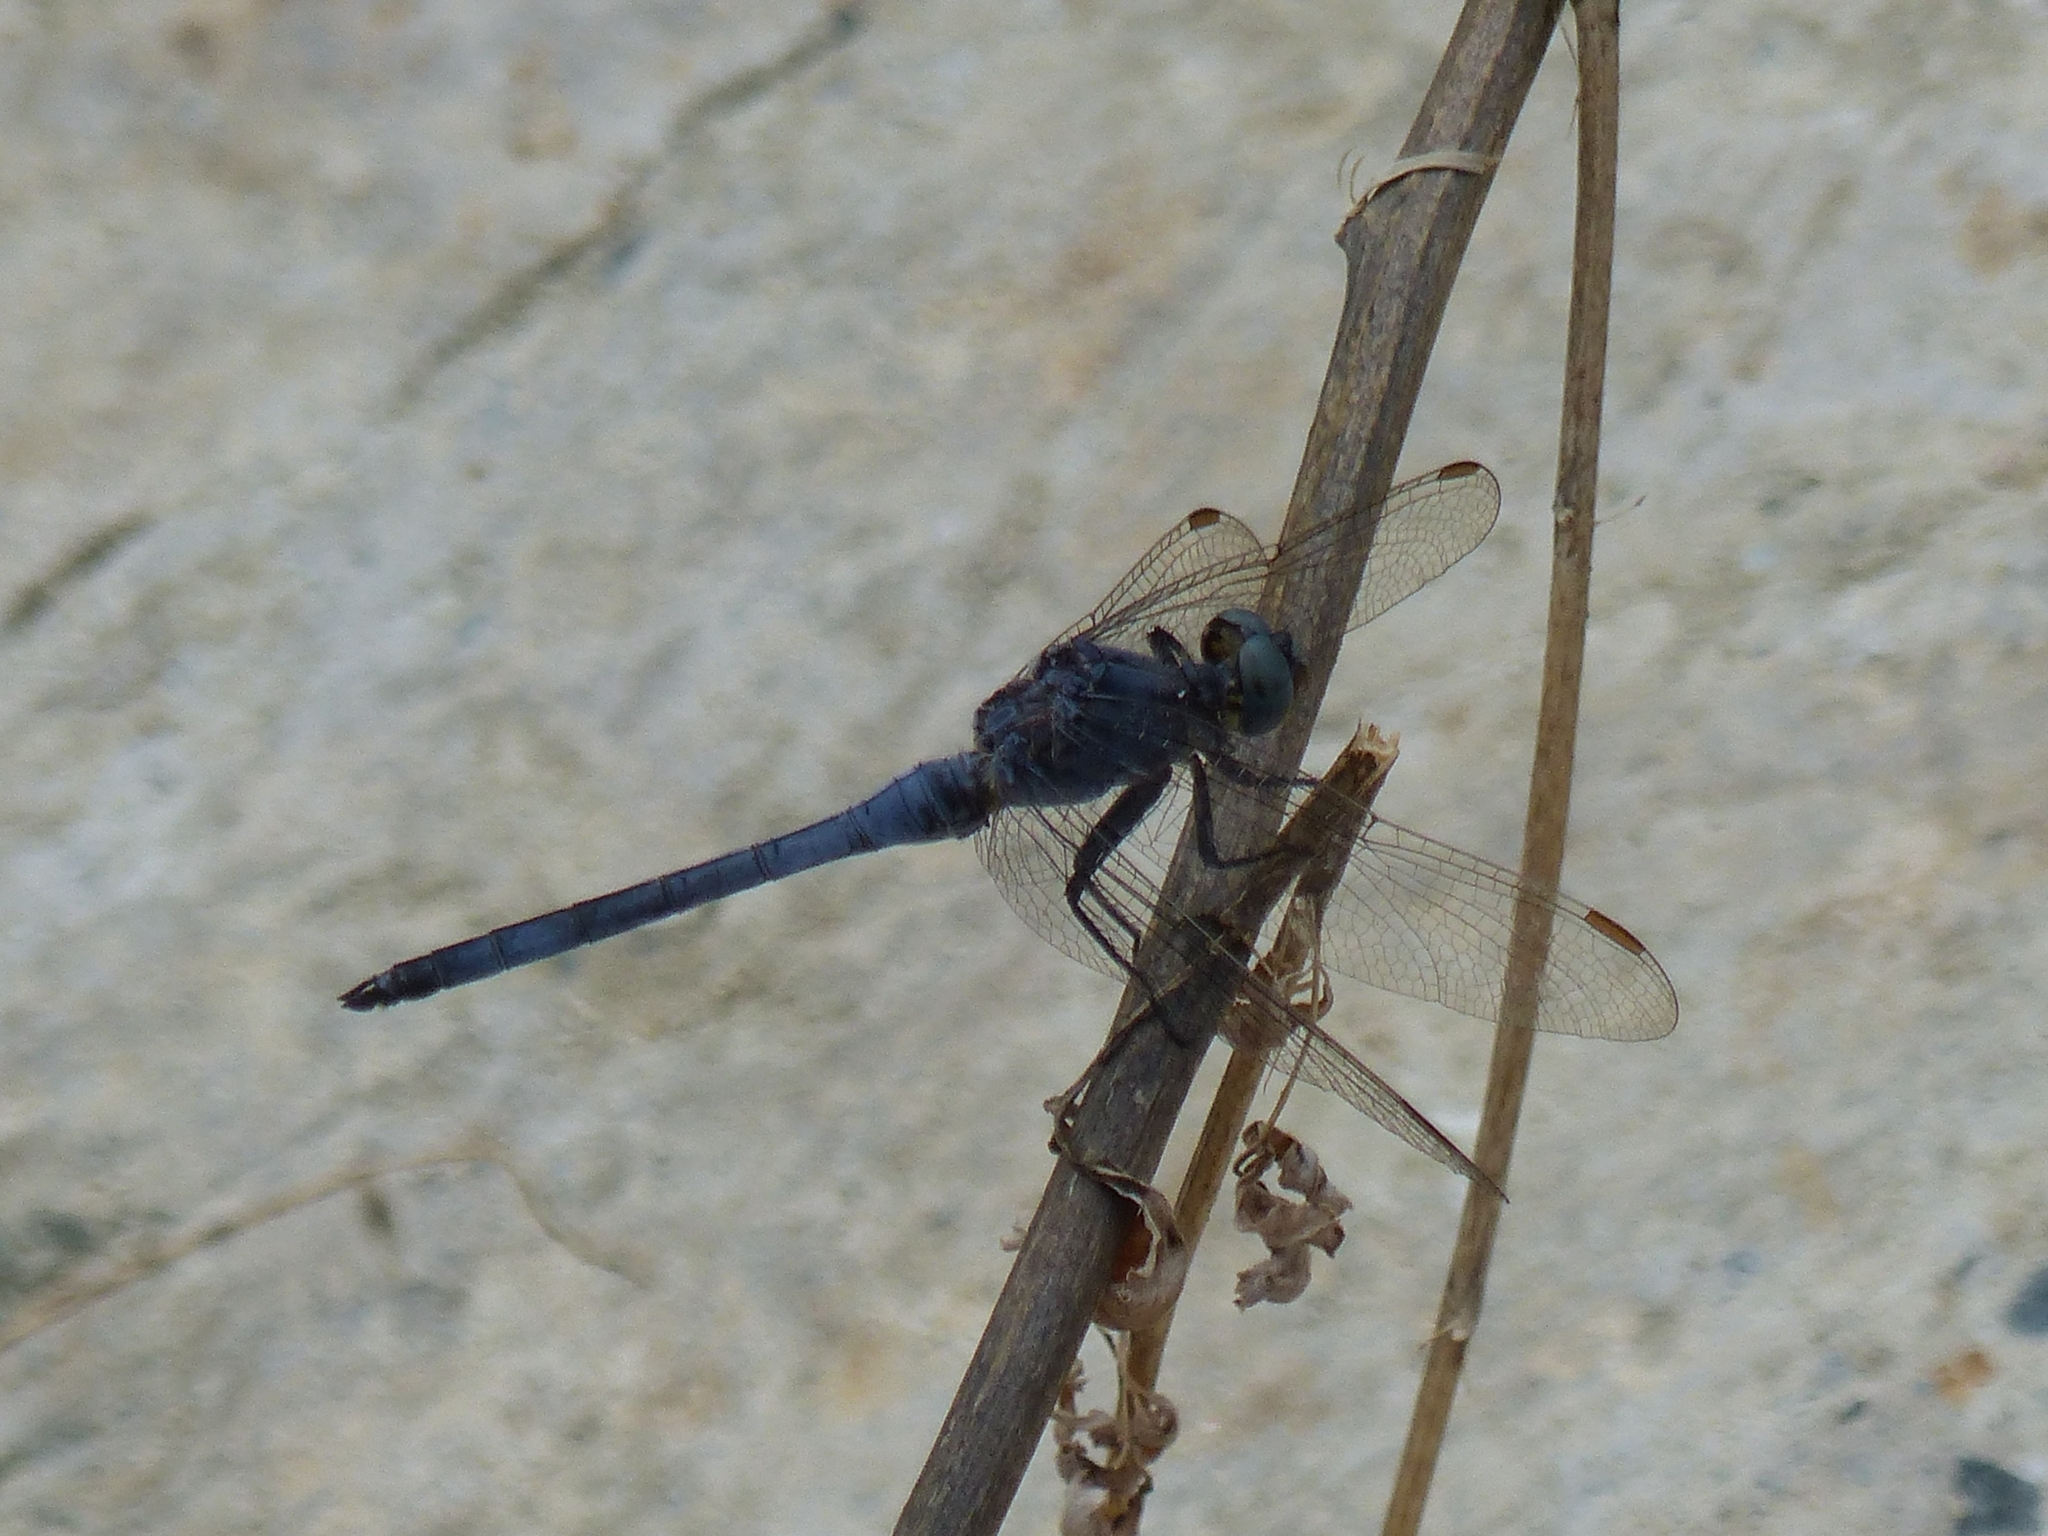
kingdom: Animalia
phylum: Arthropoda
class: Insecta
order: Odonata
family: Libellulidae
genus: Orthetrum
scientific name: Orthetrum coerulescens
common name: Keeled skimmer
